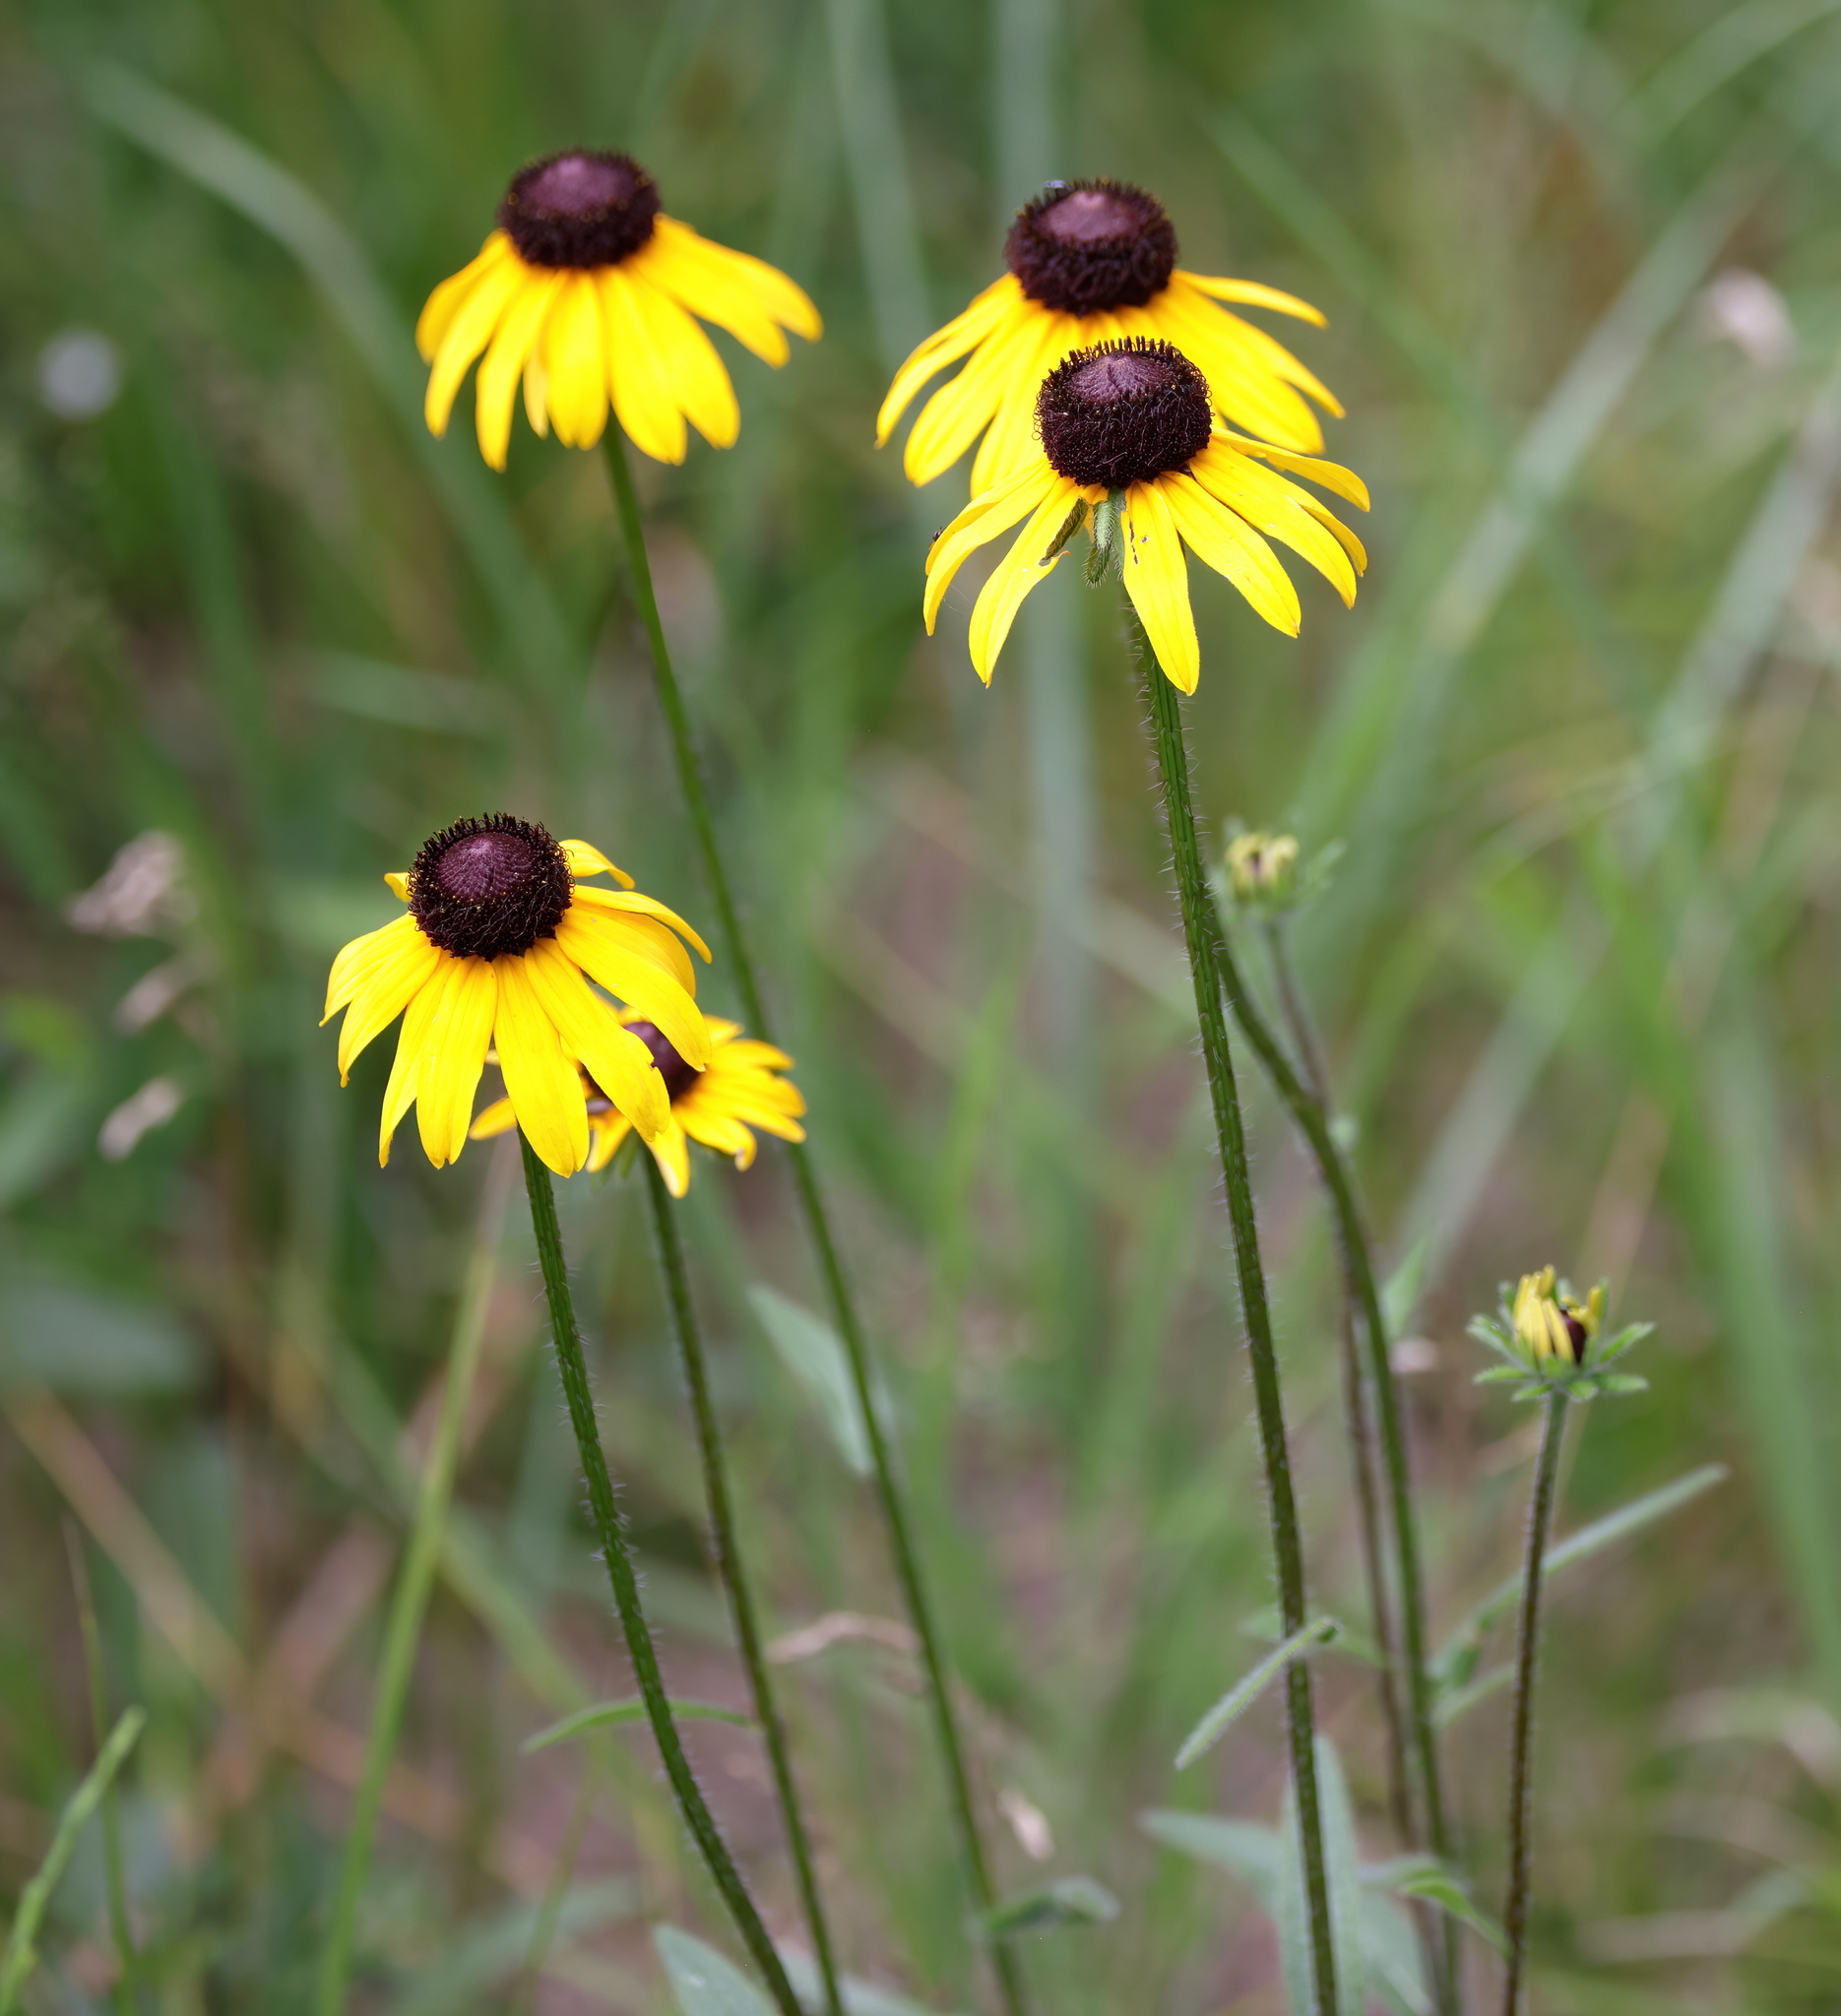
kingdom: Plantae
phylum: Tracheophyta
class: Magnoliopsida
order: Asterales
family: Asteraceae
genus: Rudbeckia
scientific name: Rudbeckia hirta
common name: Black-eyed-susan
